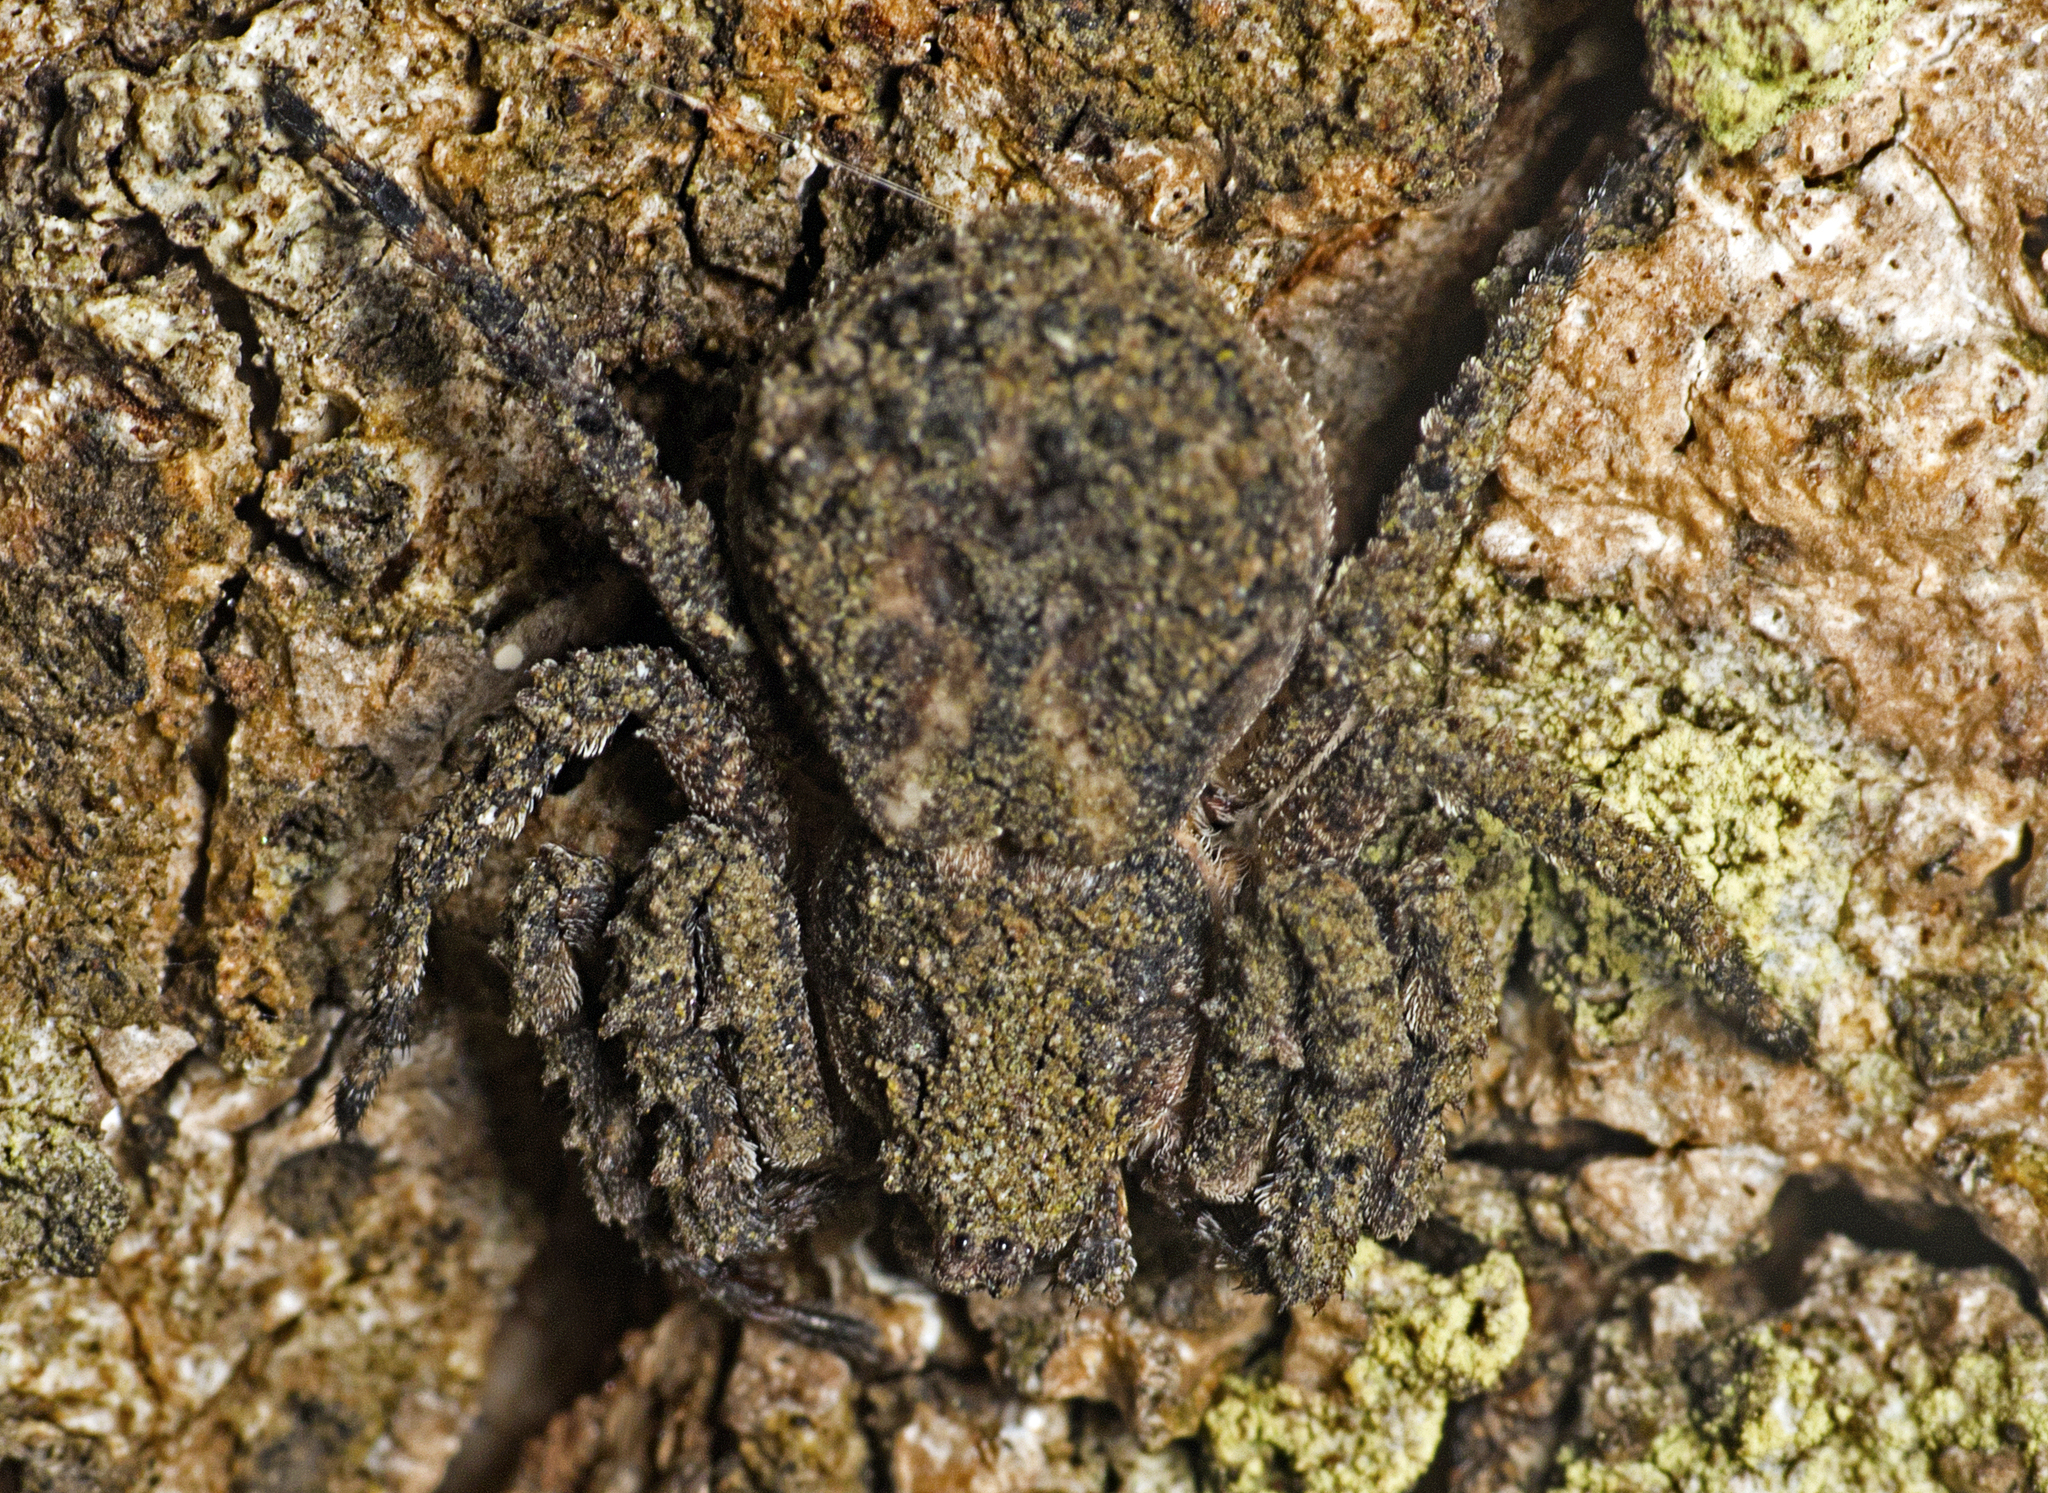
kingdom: Animalia
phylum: Arthropoda
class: Arachnida
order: Araneae
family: Thomisidae
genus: Stephanopis
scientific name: Stephanopis altifrons
